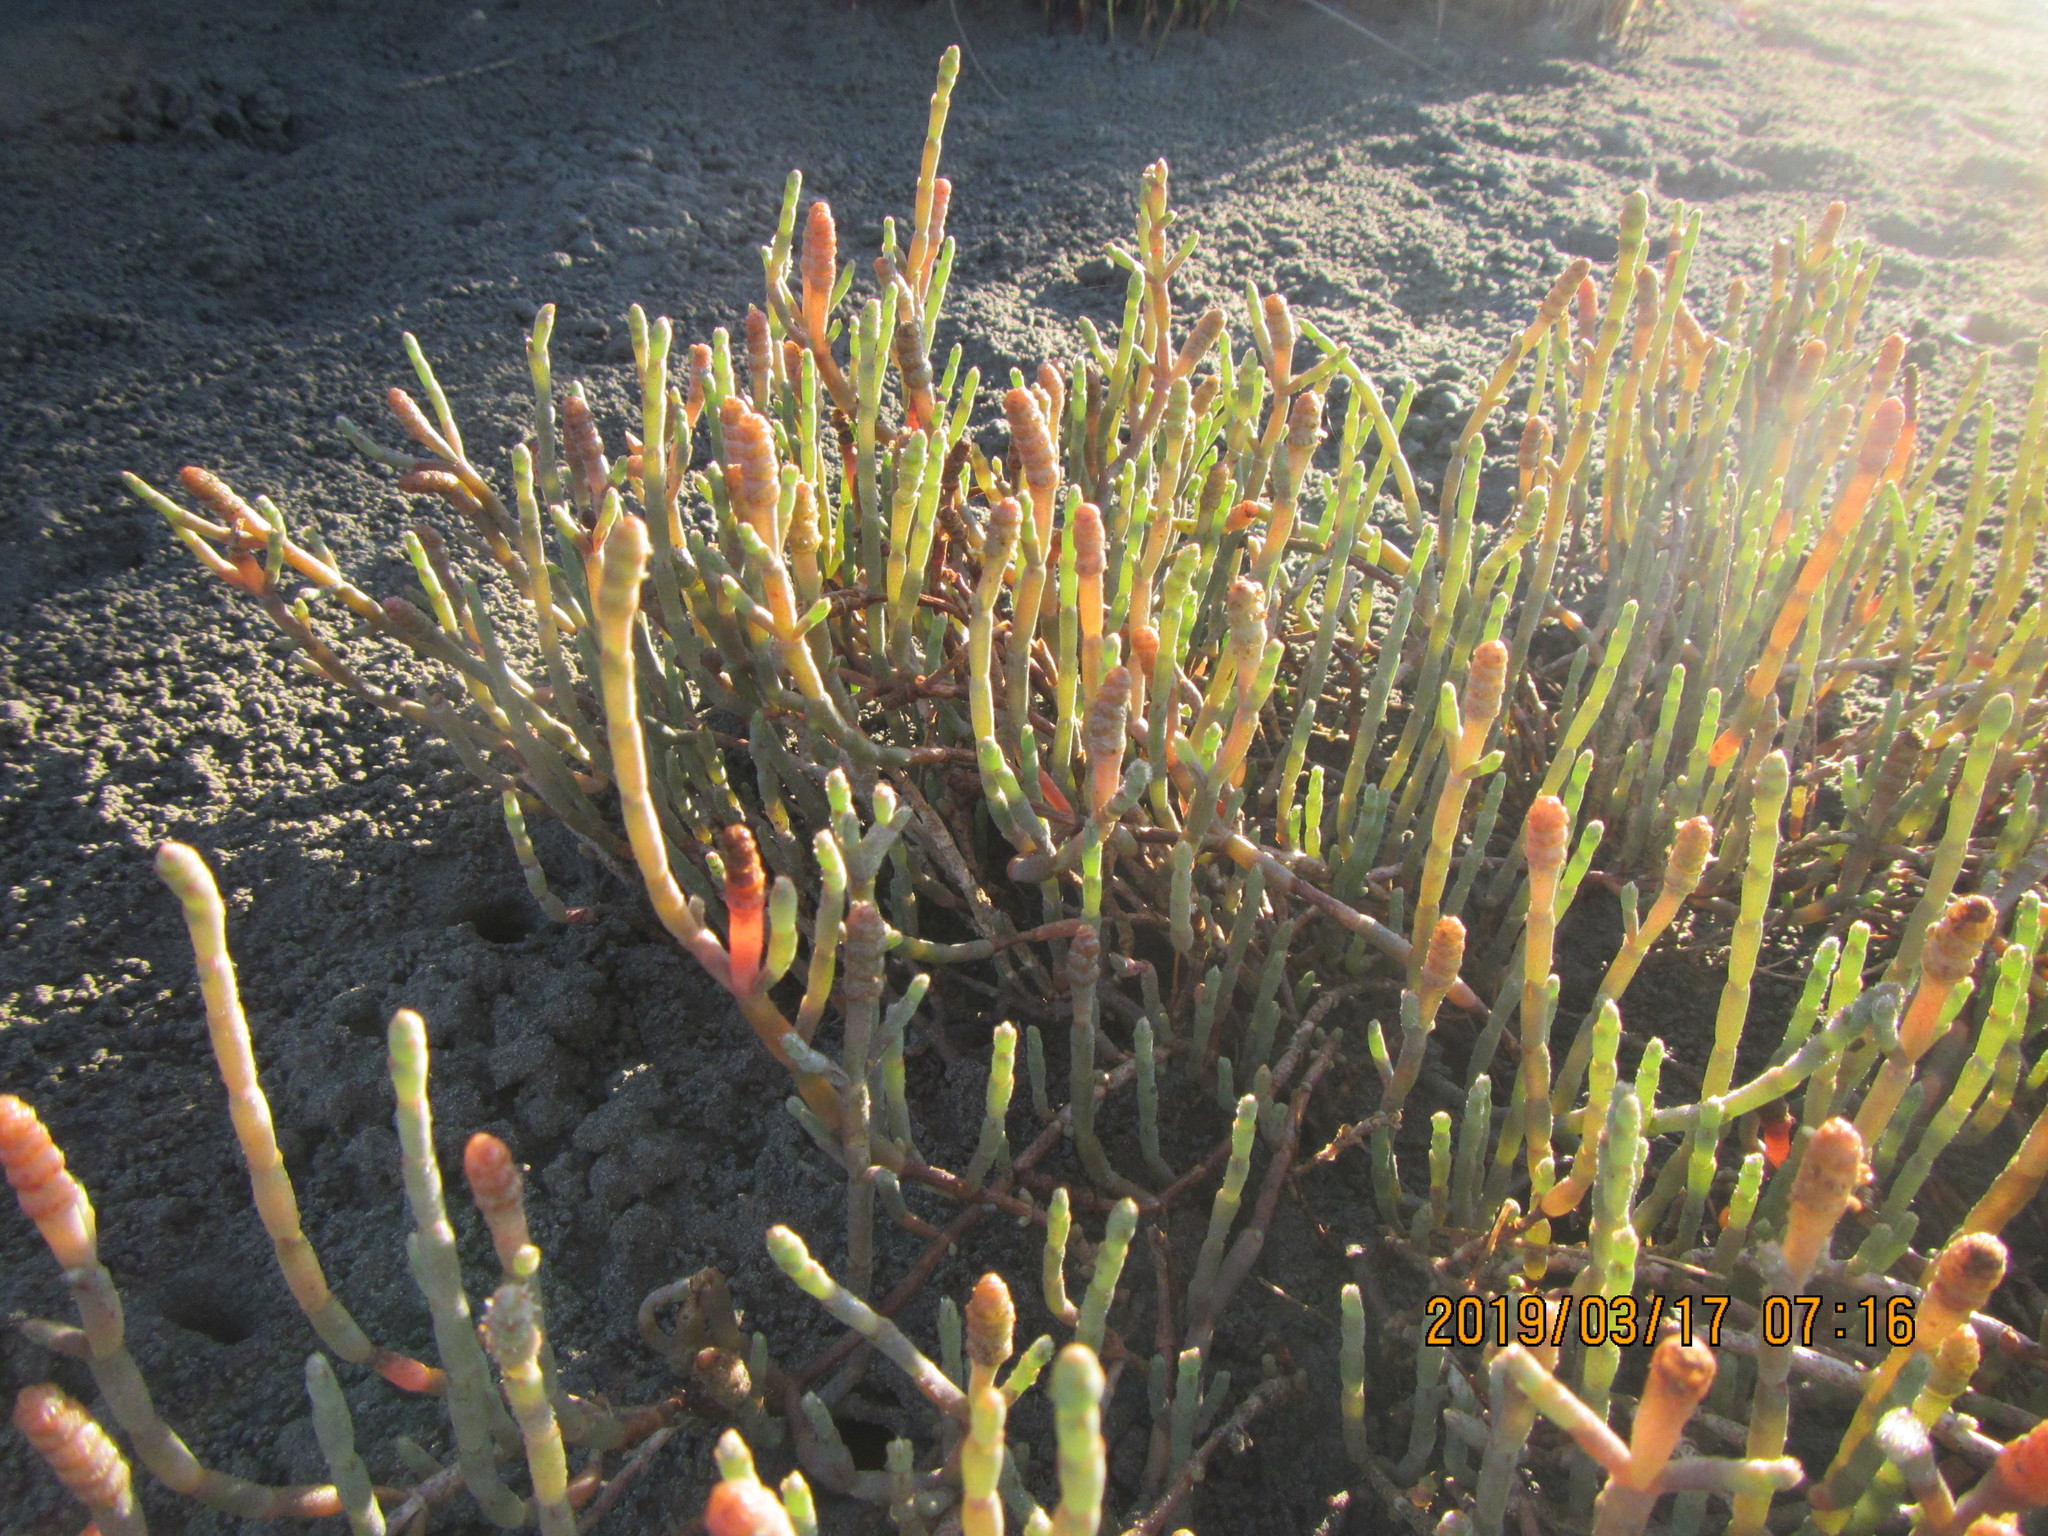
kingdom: Plantae
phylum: Tracheophyta
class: Magnoliopsida
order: Caryophyllales
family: Amaranthaceae
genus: Salicornia
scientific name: Salicornia quinqueflora
